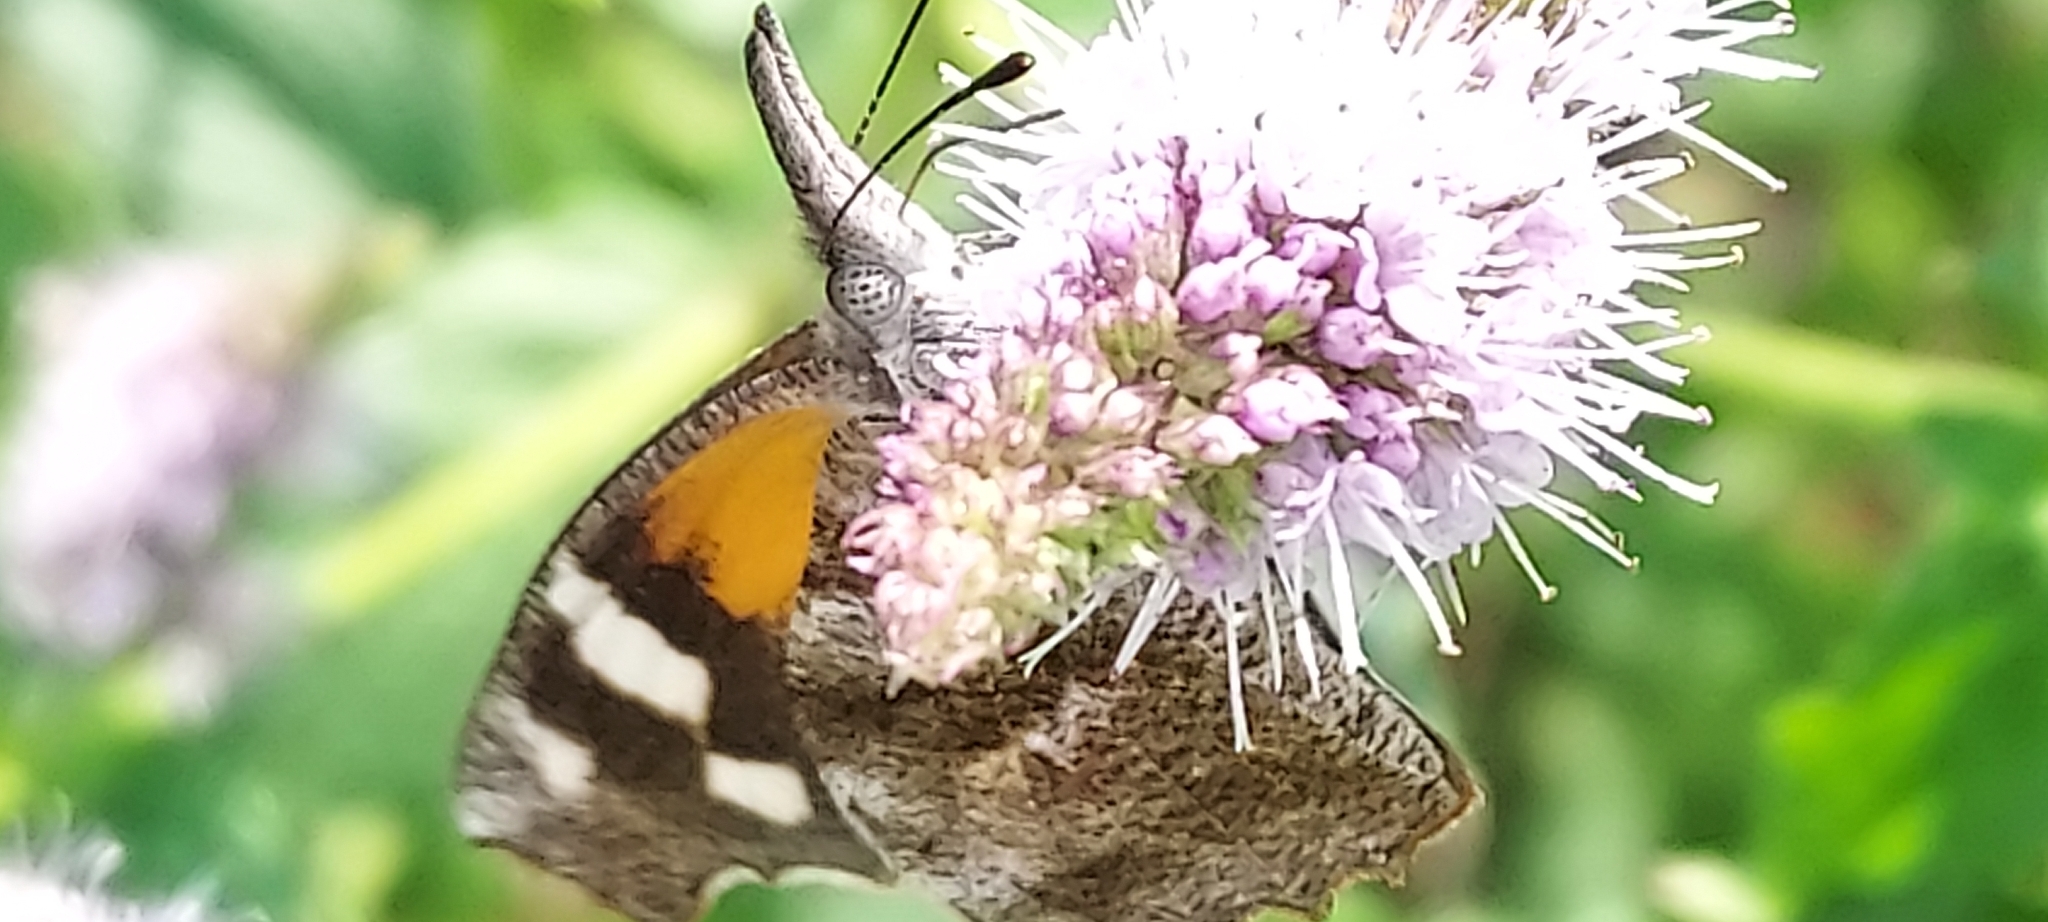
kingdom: Animalia
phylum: Arthropoda
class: Insecta
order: Lepidoptera
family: Nymphalidae
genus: Libytheana
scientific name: Libytheana carinenta
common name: American snout
